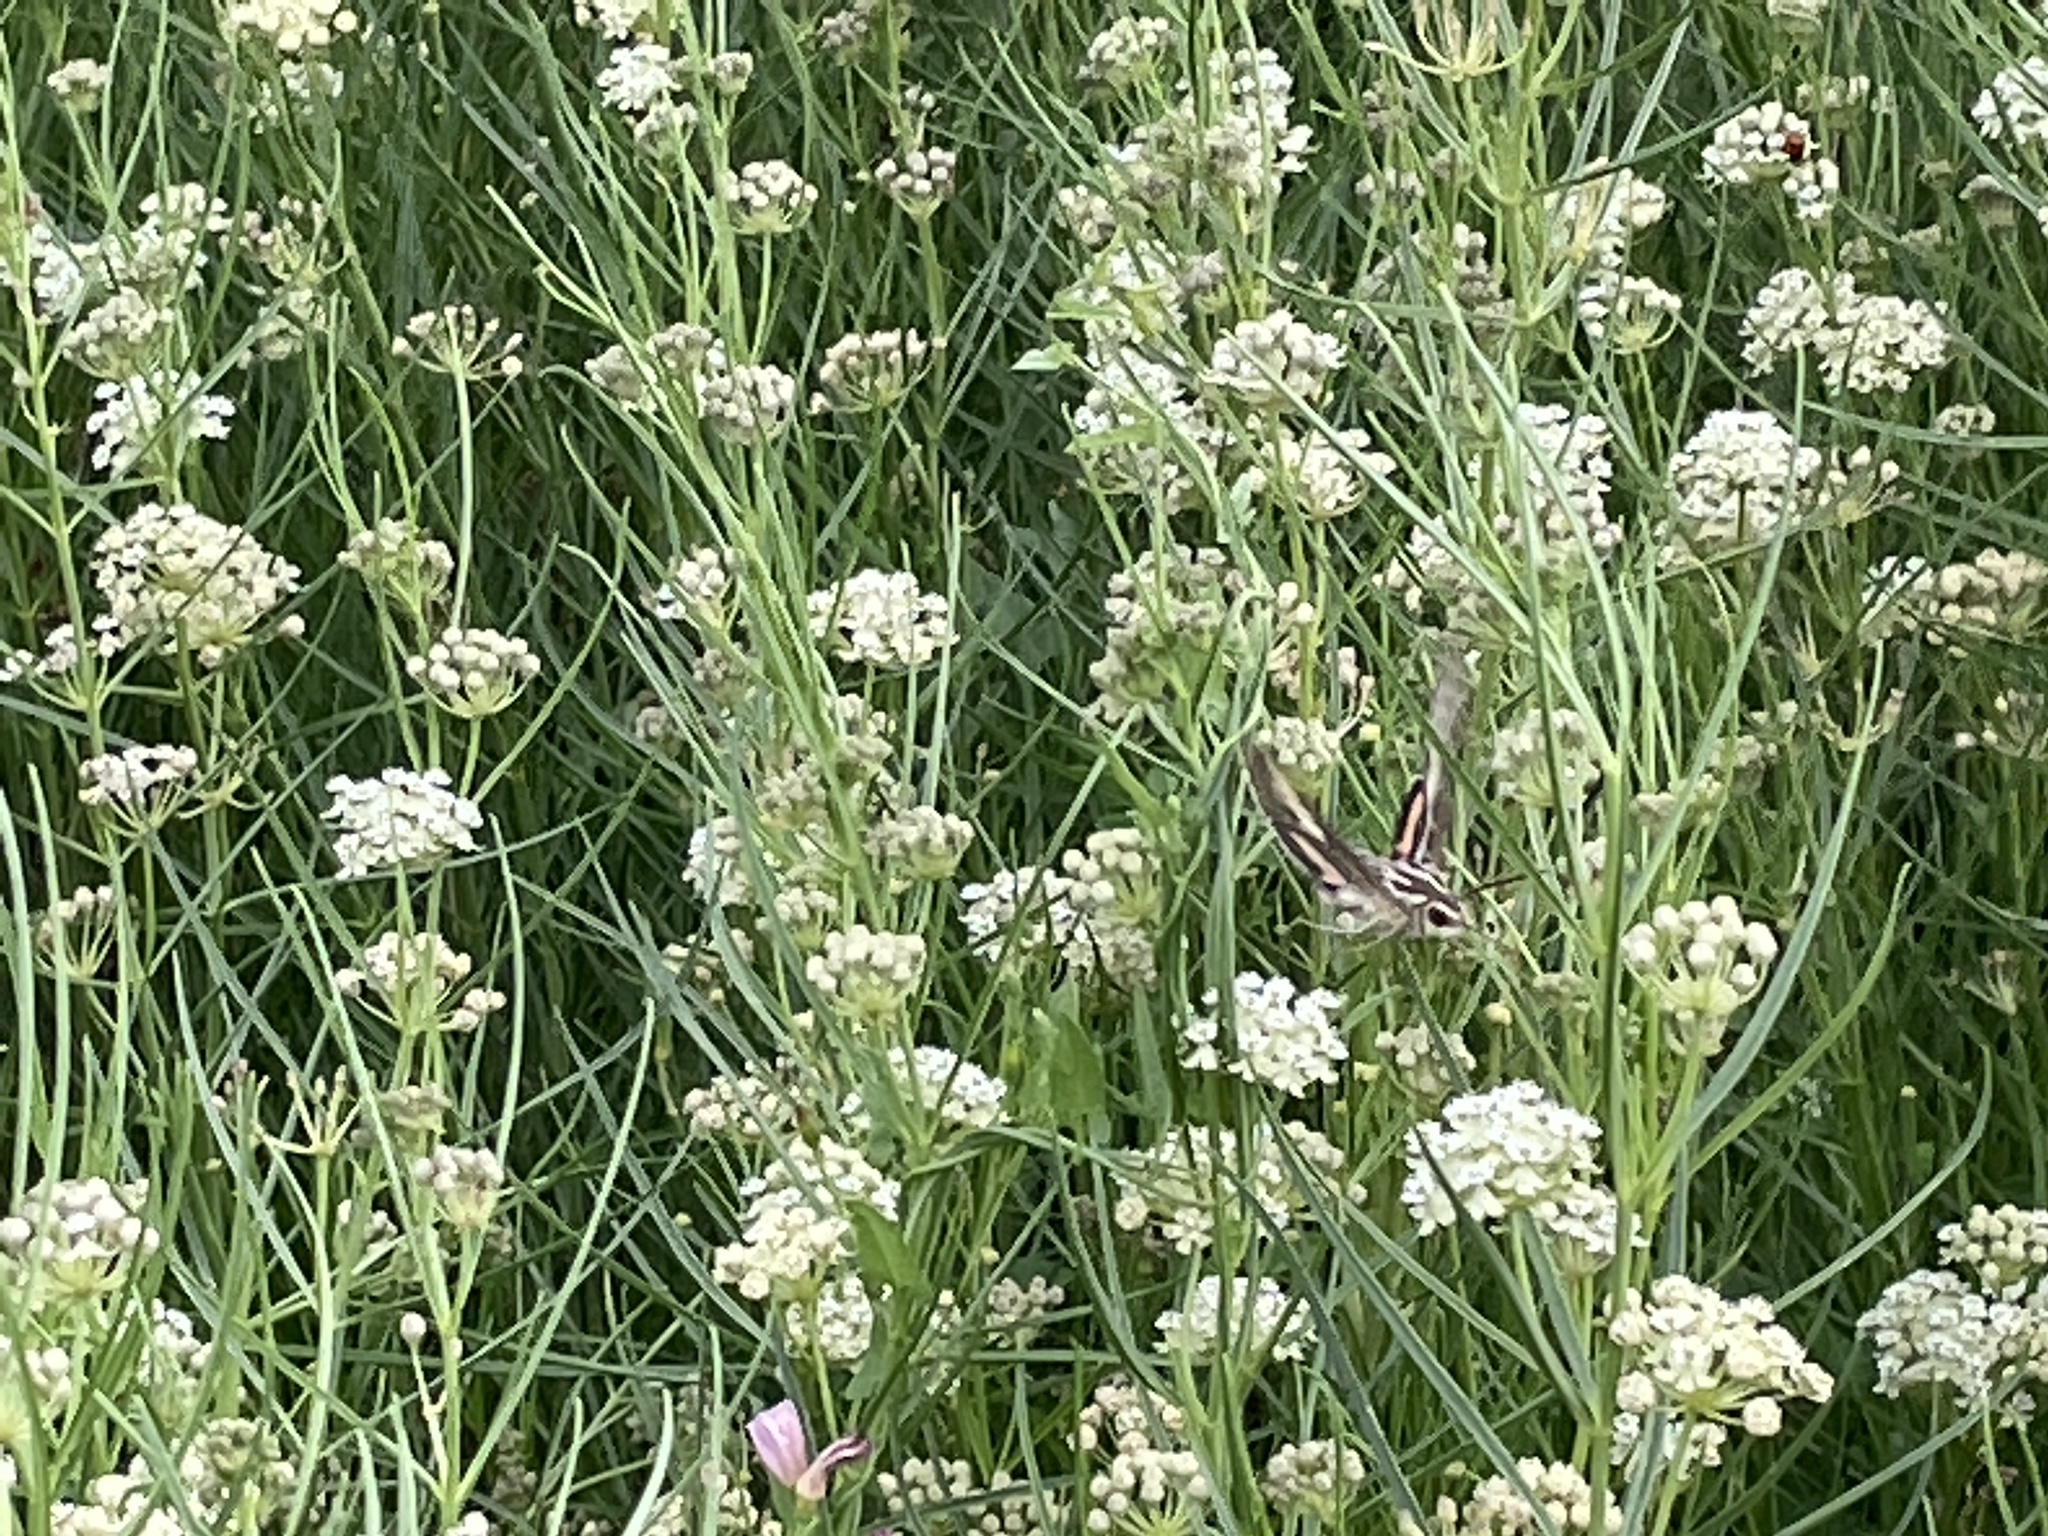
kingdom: Animalia
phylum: Arthropoda
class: Insecta
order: Lepidoptera
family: Sphingidae
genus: Hyles
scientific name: Hyles lineata
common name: White-lined sphinx
